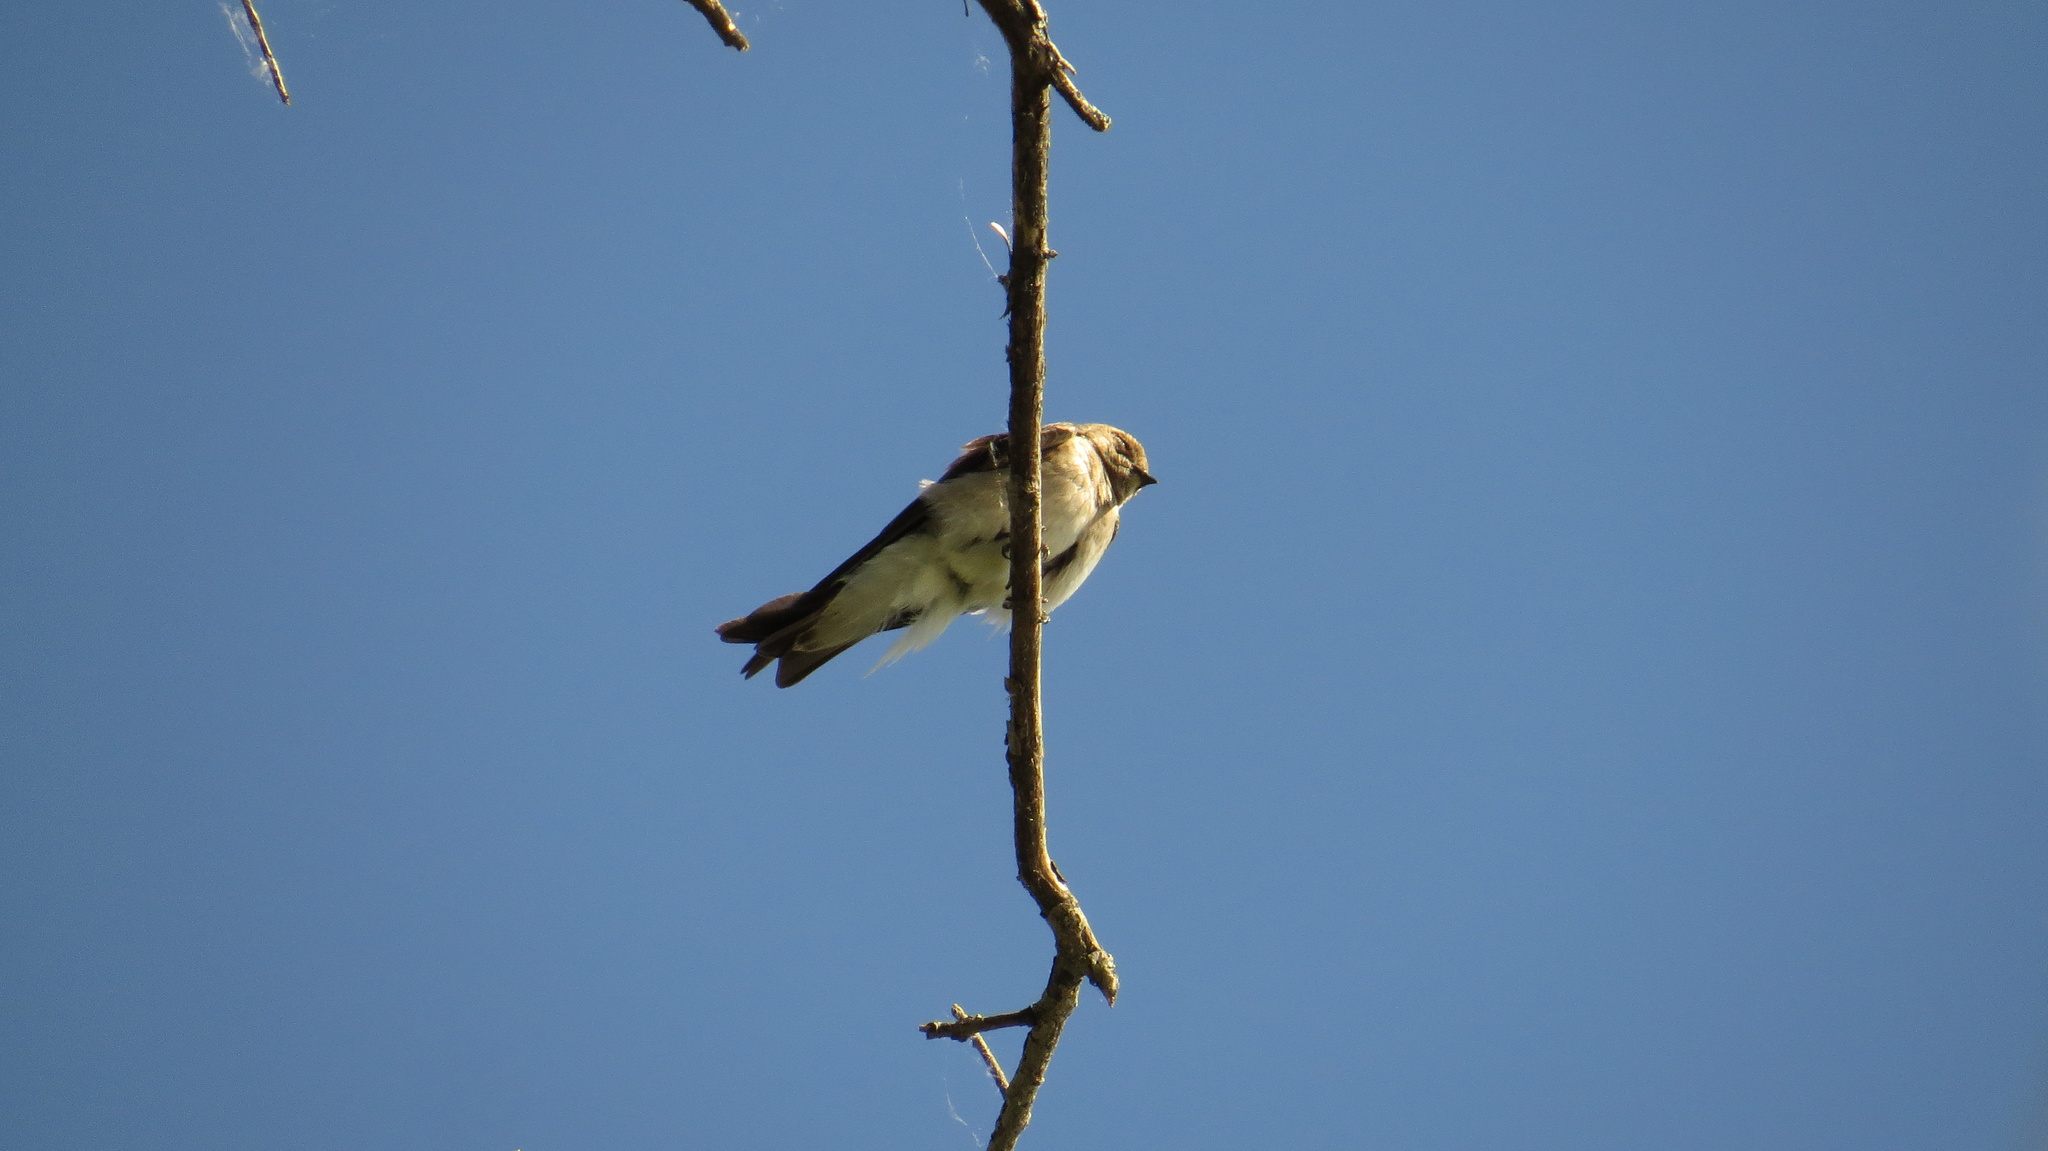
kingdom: Animalia
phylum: Chordata
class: Aves
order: Passeriformes
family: Hirundinidae
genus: Stelgidopteryx
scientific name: Stelgidopteryx serripennis
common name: Northern rough-winged swallow
